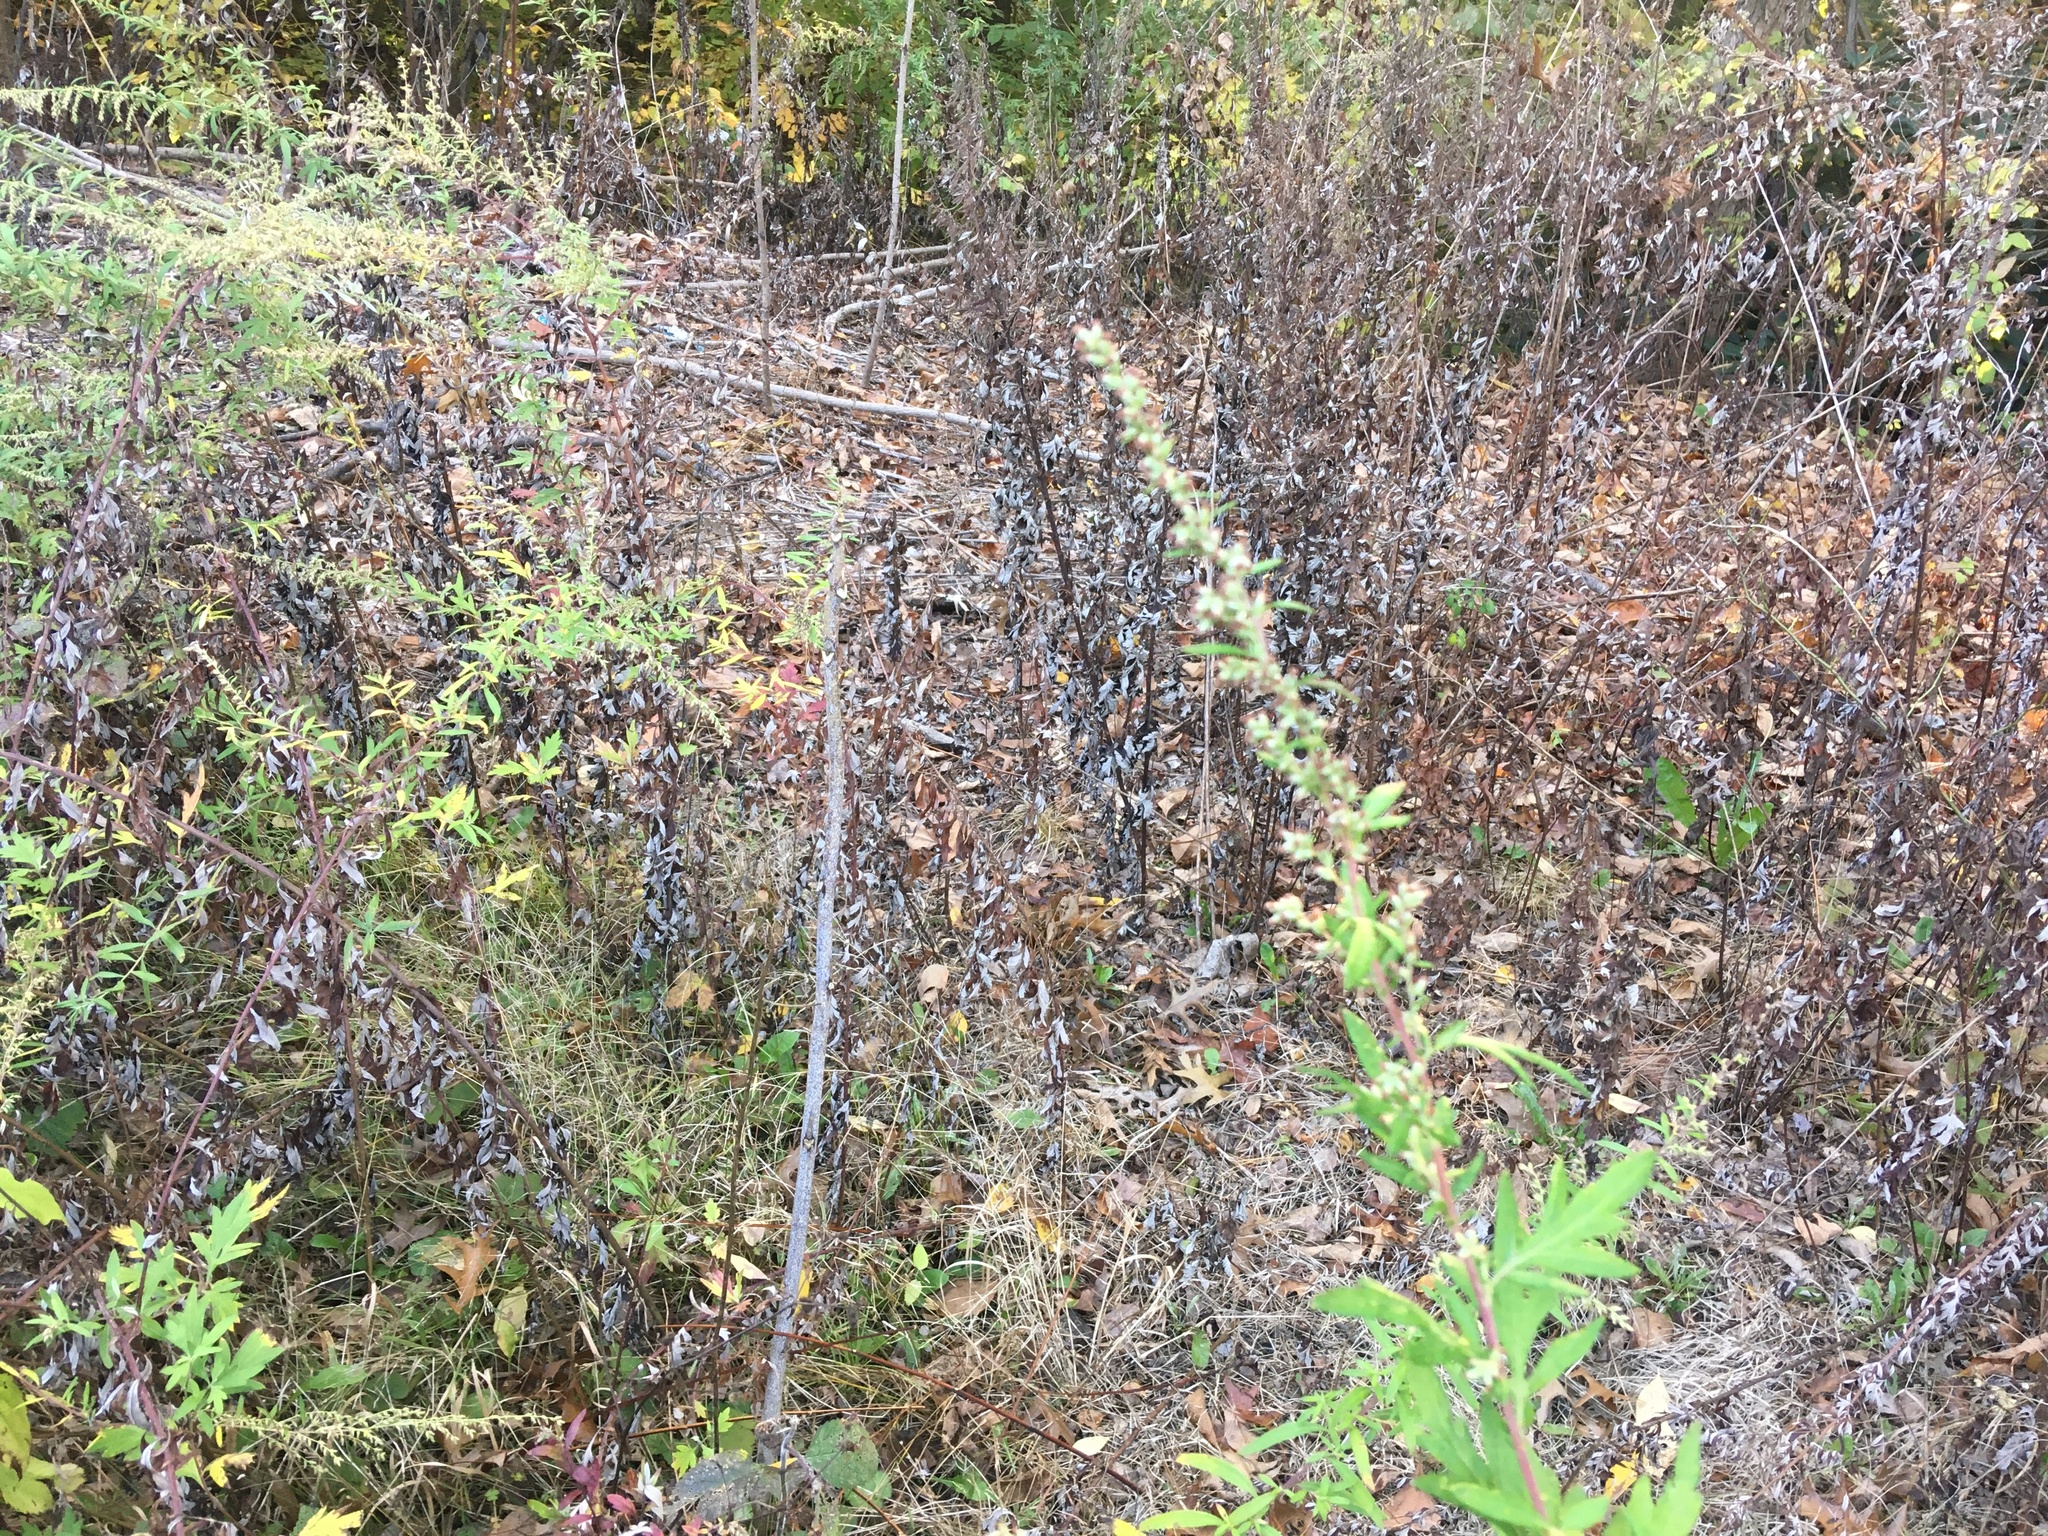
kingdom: Plantae
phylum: Tracheophyta
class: Magnoliopsida
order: Asterales
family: Asteraceae
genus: Artemisia
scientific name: Artemisia vulgaris
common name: Mugwort
